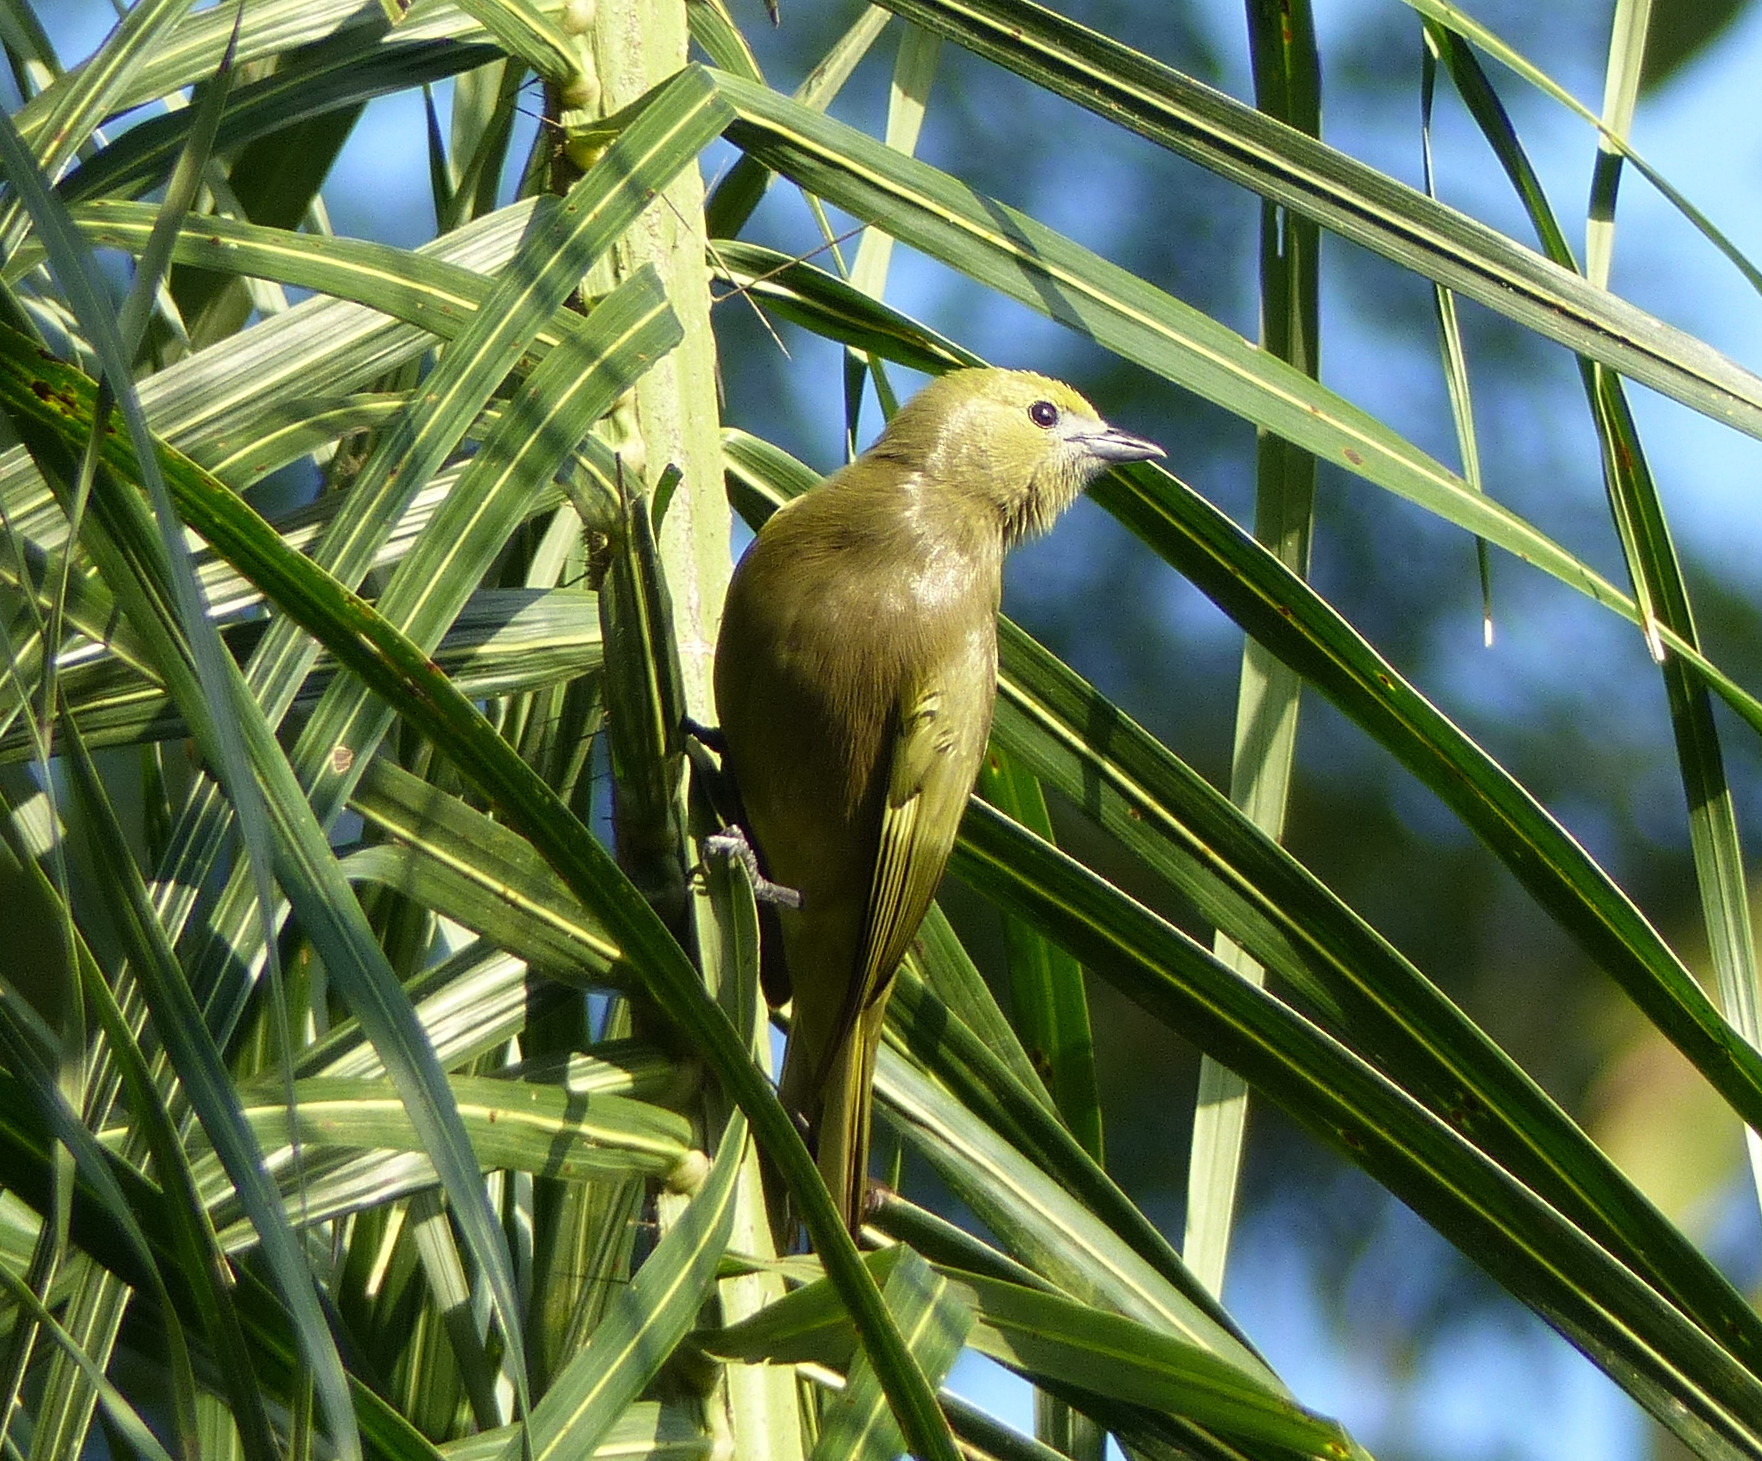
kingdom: Animalia
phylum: Chordata
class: Aves
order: Passeriformes
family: Thraupidae
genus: Thraupis
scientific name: Thraupis palmarum
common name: Palm tanager
